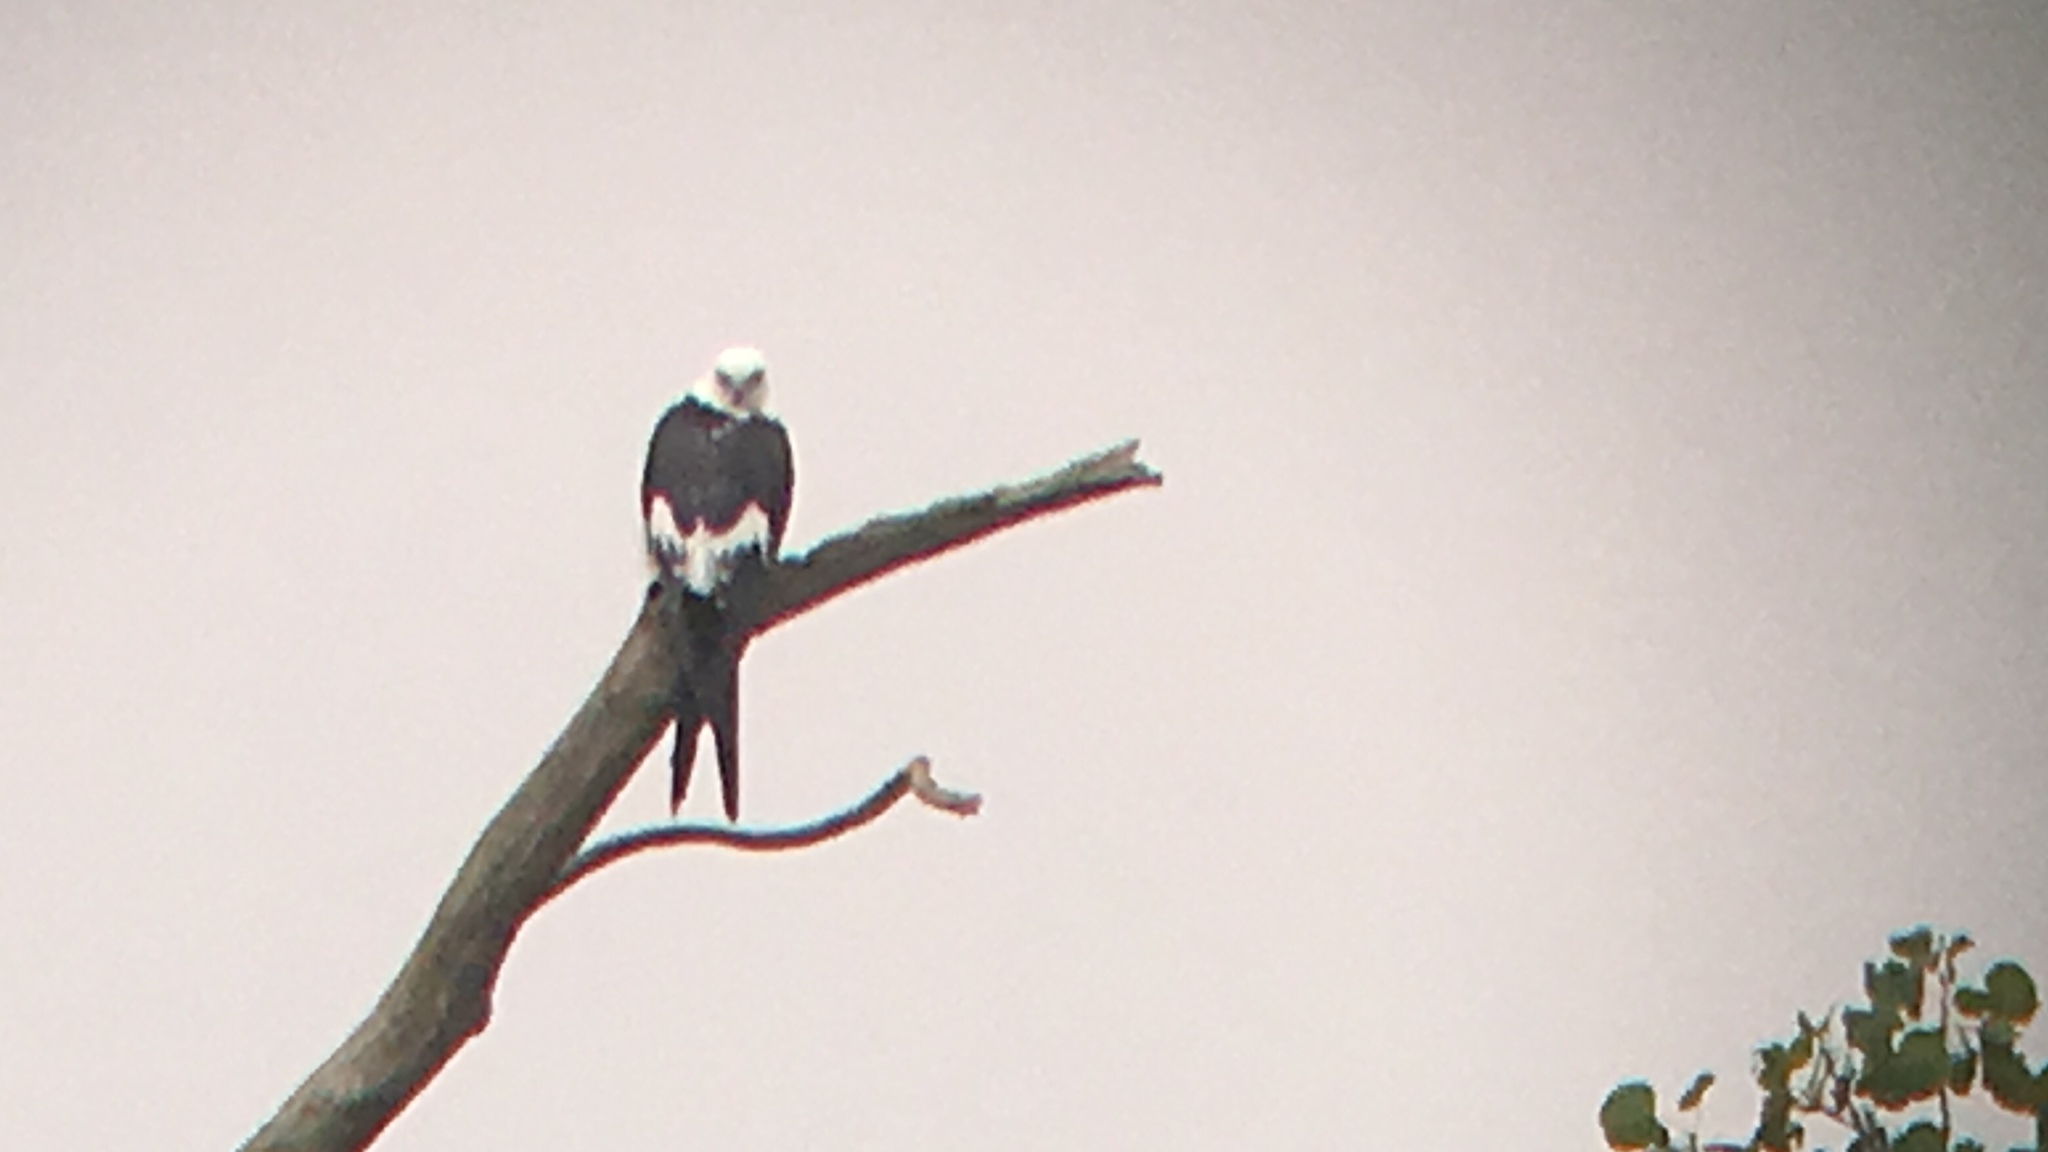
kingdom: Animalia
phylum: Chordata
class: Aves
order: Accipitriformes
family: Accipitridae
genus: Elanoides
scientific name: Elanoides forficatus
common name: Swallow-tailed kite
